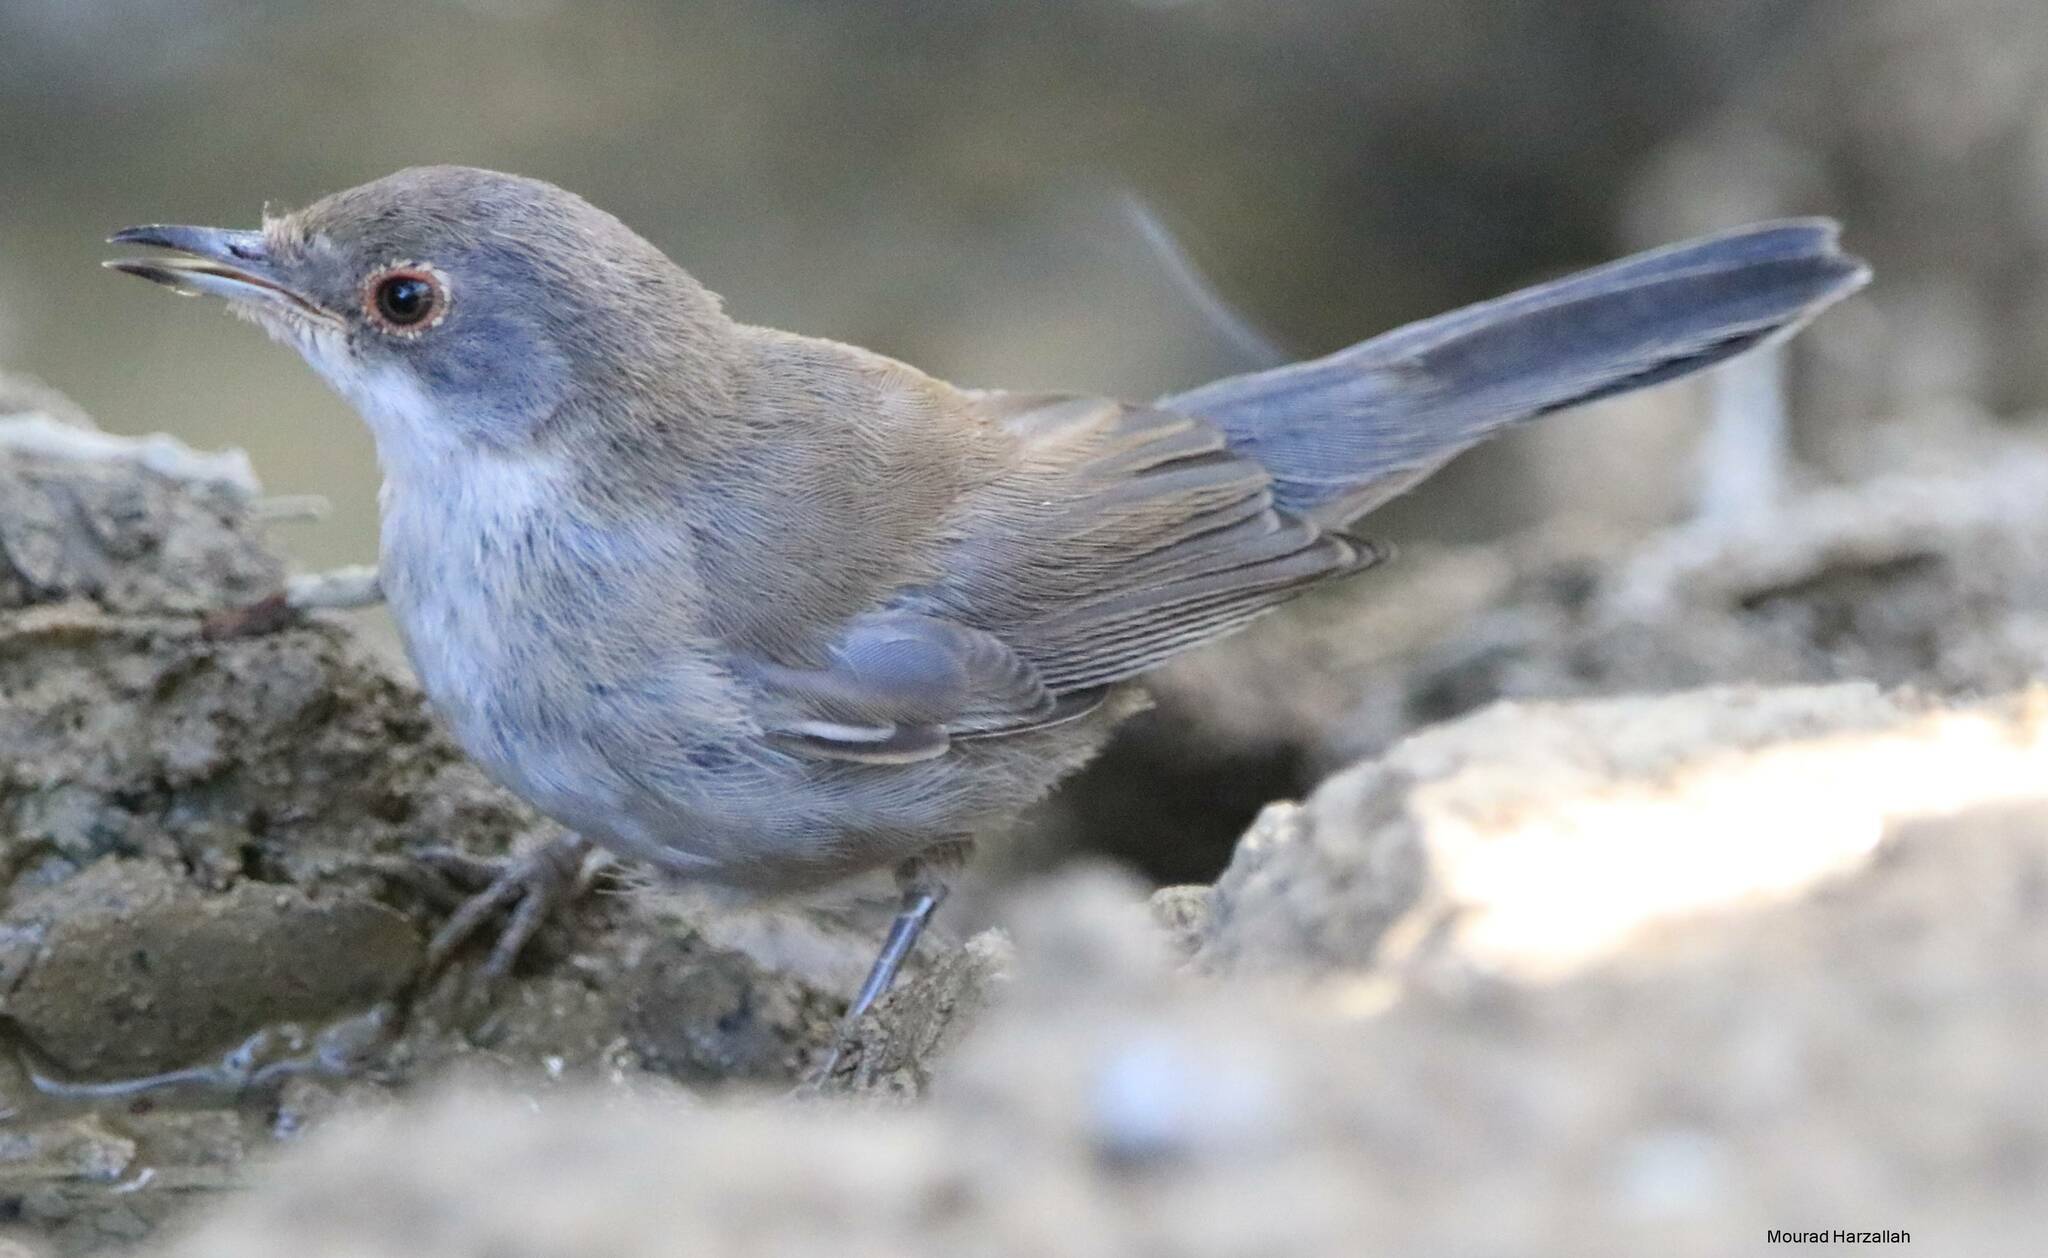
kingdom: Animalia
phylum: Chordata
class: Aves
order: Passeriformes
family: Sylviidae
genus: Curruca
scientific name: Curruca melanocephala
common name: Sardinian warbler
